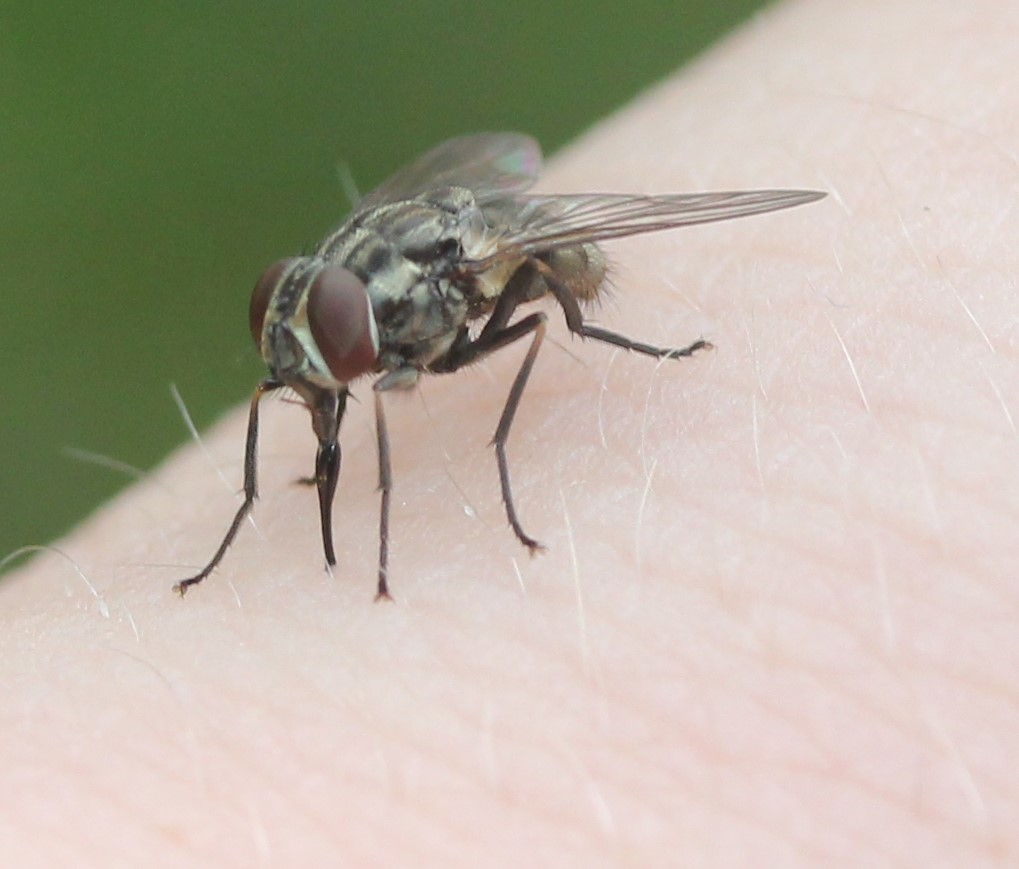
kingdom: Animalia
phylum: Arthropoda
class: Insecta
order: Diptera
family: Muscidae
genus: Stomoxys
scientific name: Stomoxys calcitrans
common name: Stable fly
